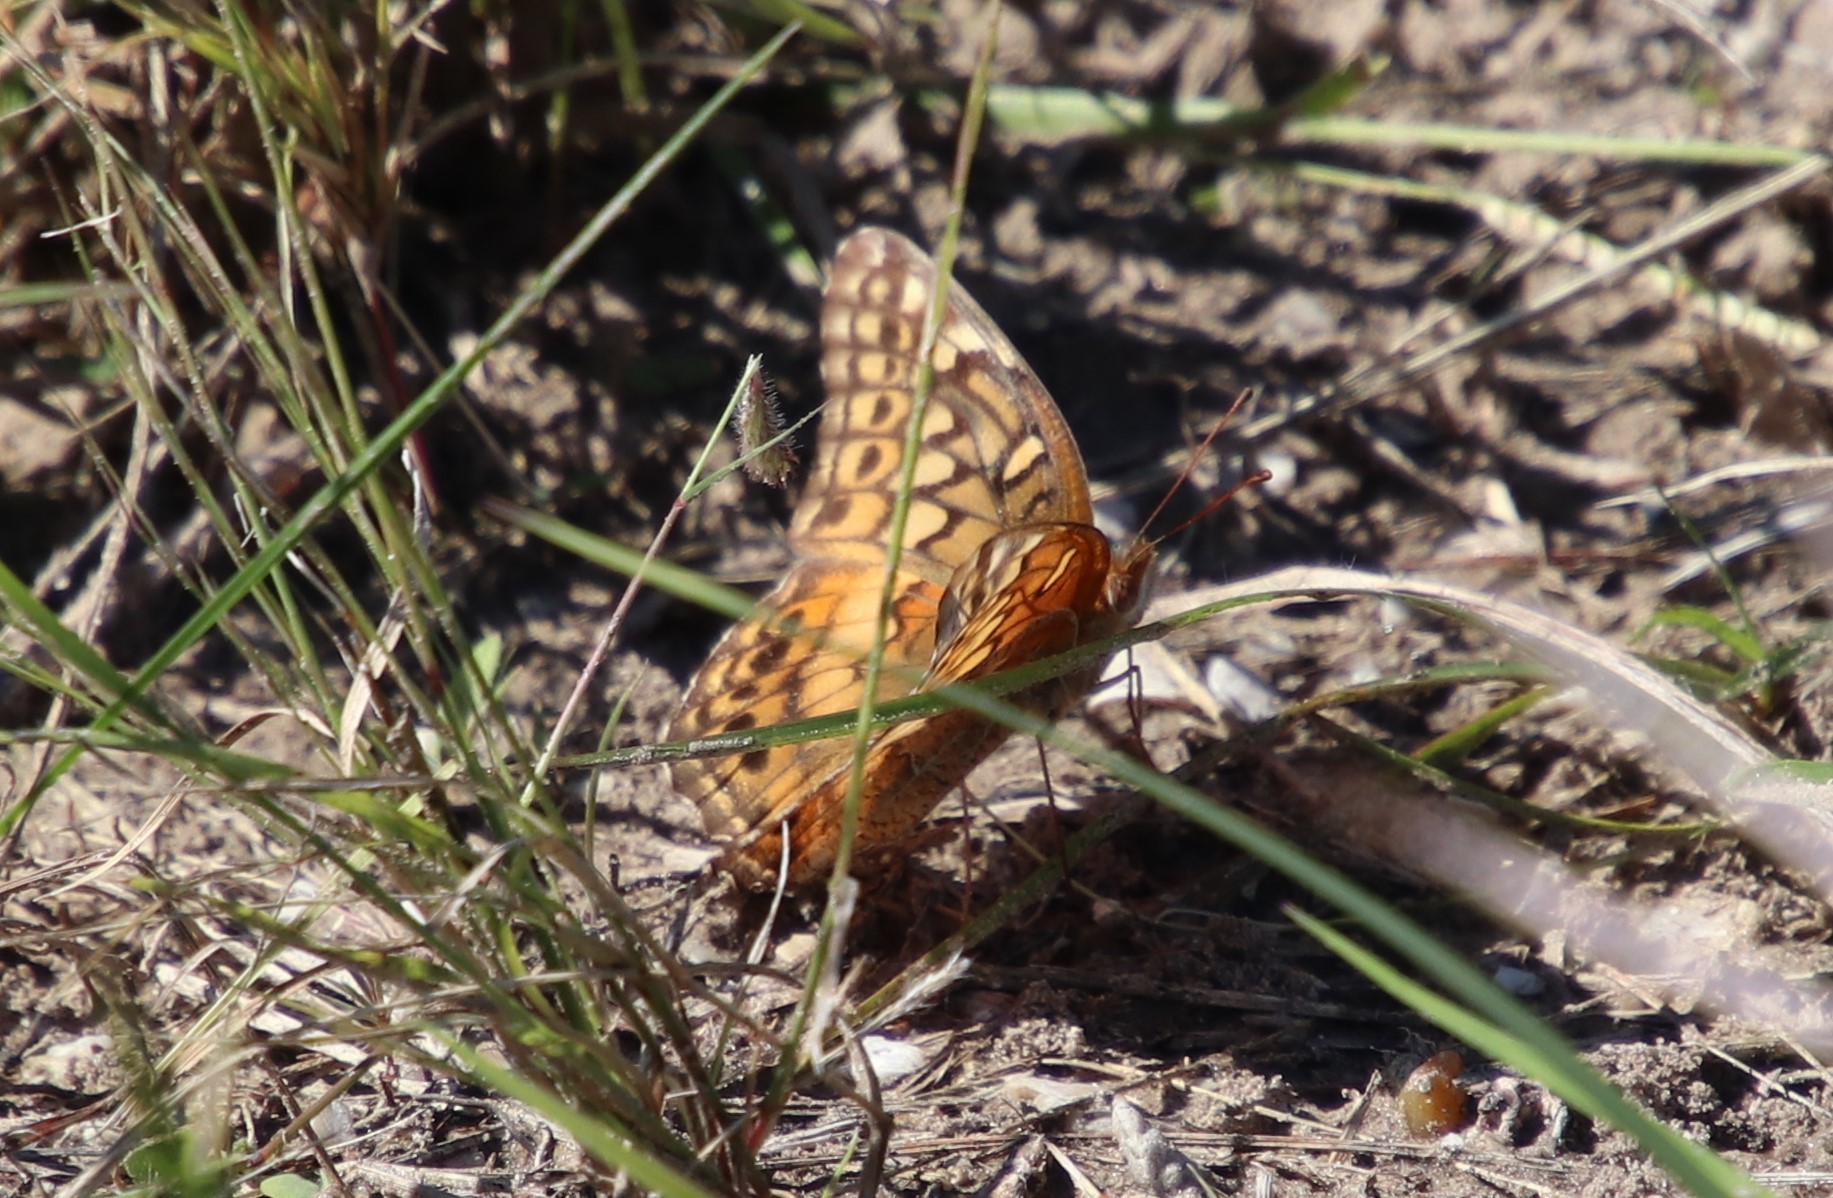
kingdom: Animalia
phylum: Arthropoda
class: Insecta
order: Lepidoptera
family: Nymphalidae
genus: Euptoieta
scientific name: Euptoieta claudia
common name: Variegated fritillary
